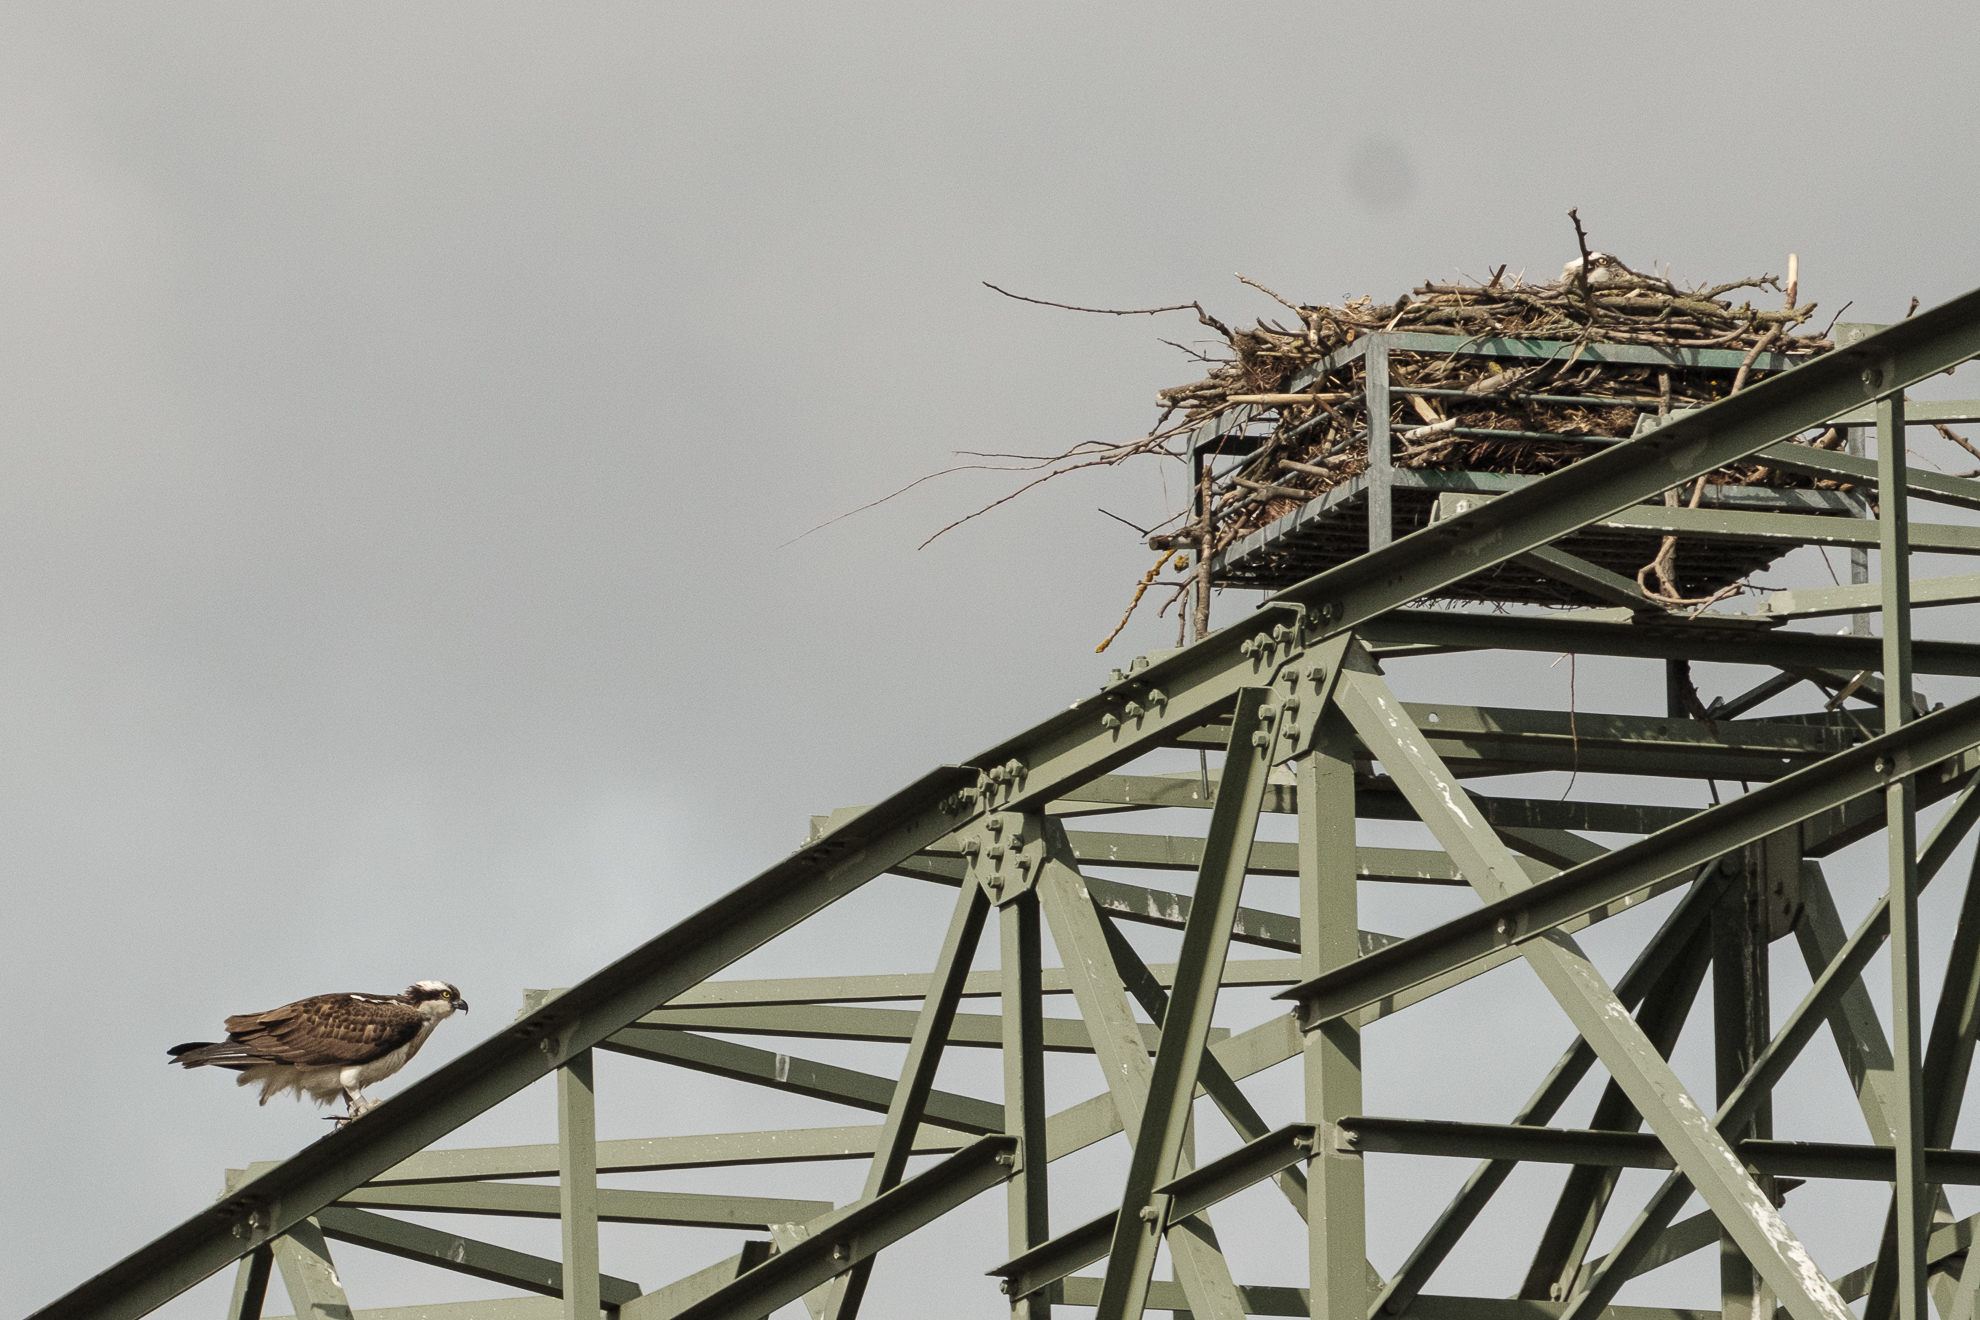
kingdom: Animalia
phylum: Chordata
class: Aves
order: Accipitriformes
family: Pandionidae
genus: Pandion
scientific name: Pandion haliaetus
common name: Osprey
